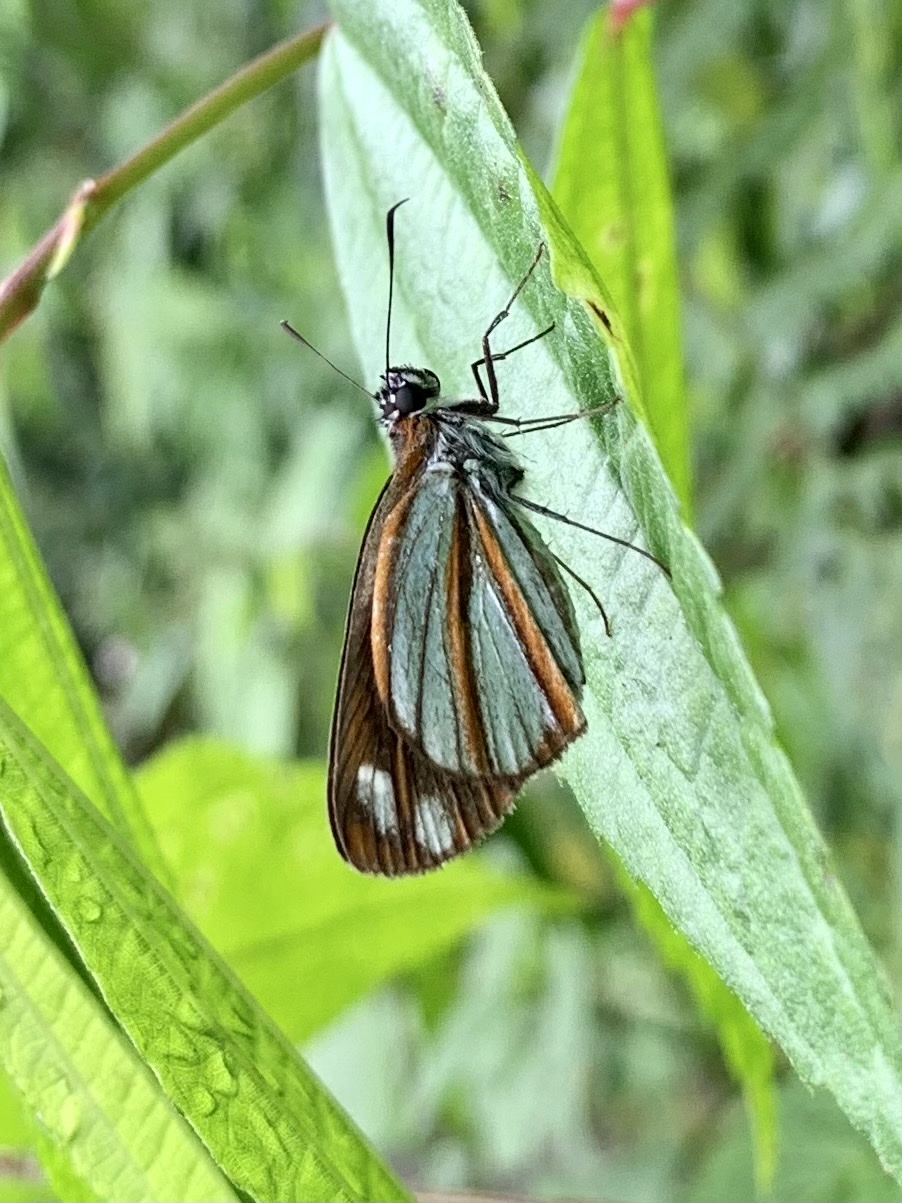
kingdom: Animalia
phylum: Arthropoda
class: Insecta
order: Lepidoptera
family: Hesperiidae
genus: Corra
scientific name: Corra
